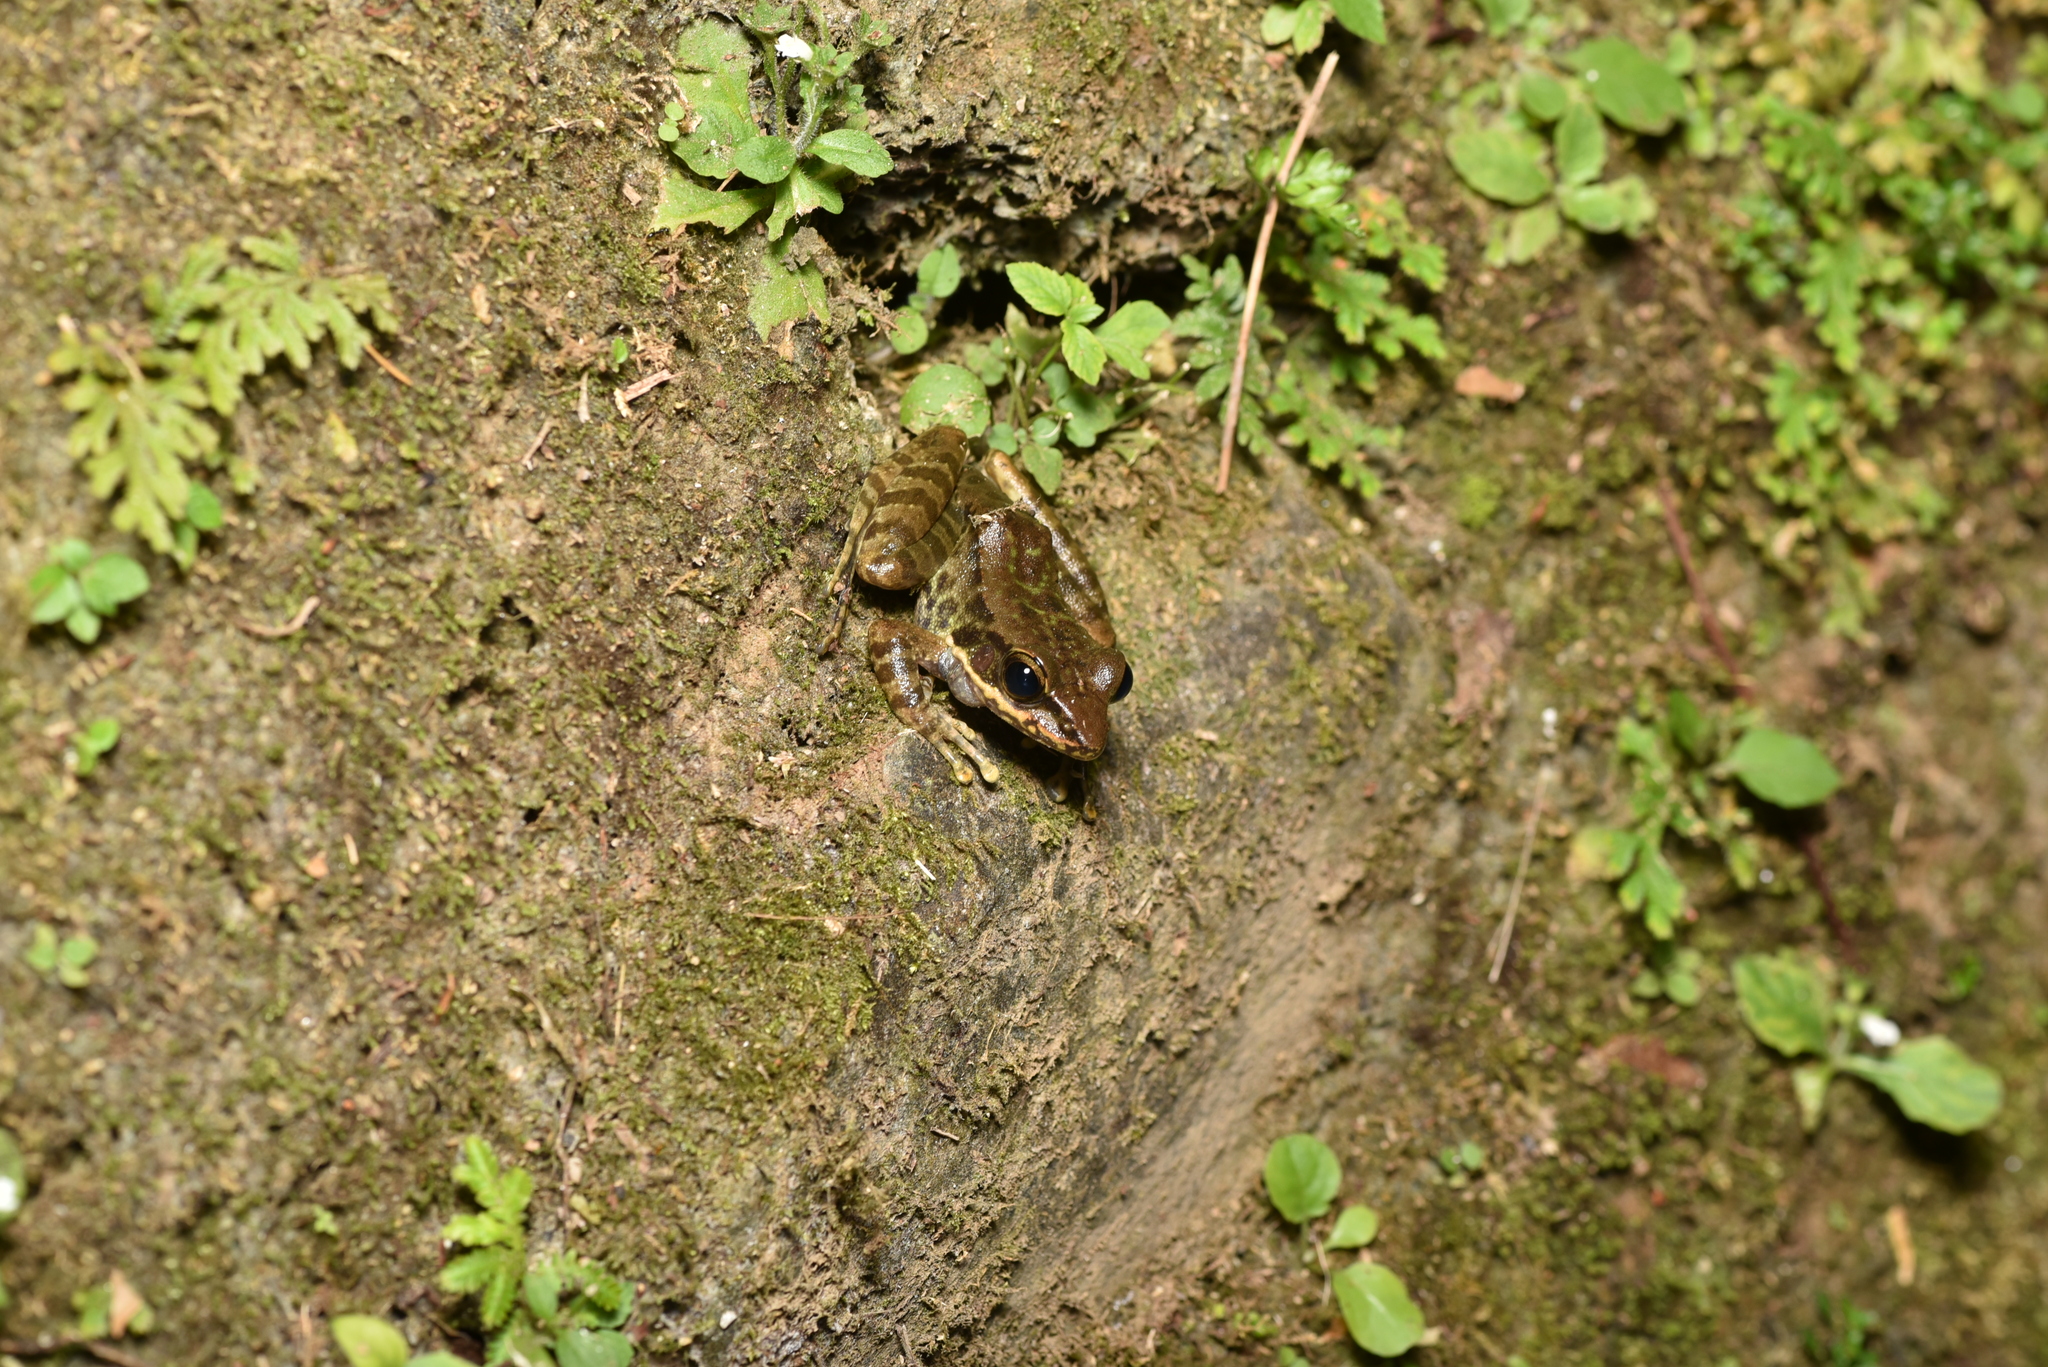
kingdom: Animalia
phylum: Chordata
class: Amphibia
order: Anura
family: Ranidae
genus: Odorrana
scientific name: Odorrana swinhoana
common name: Bangkimtsing frog
